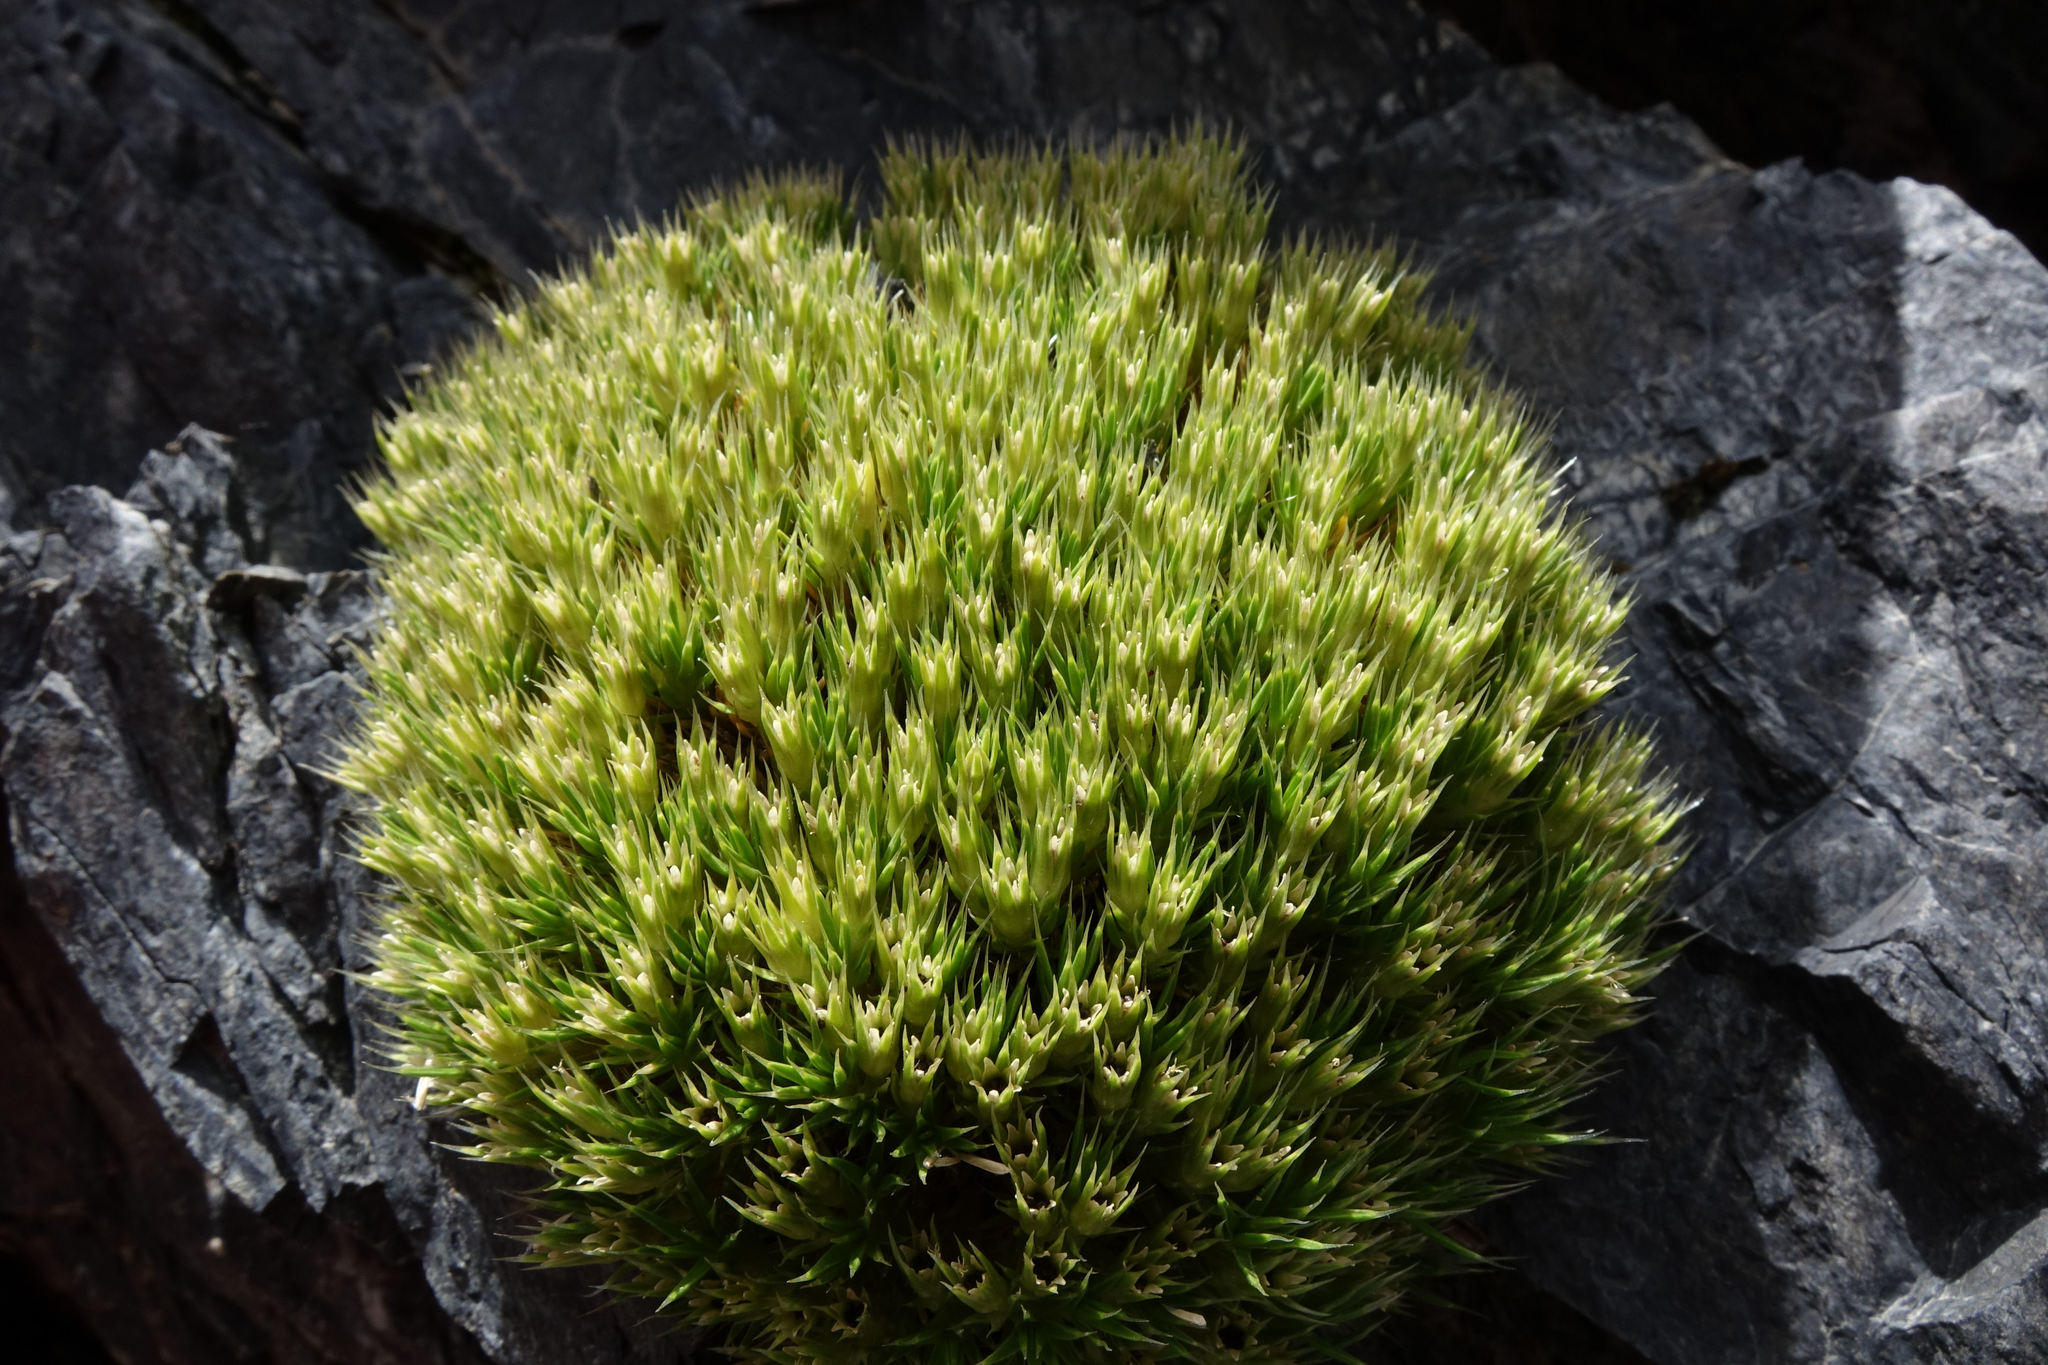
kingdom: Plantae
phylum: Tracheophyta
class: Magnoliopsida
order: Caryophyllales
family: Caryophyllaceae
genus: Colobanthus
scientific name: Colobanthus acicularis
